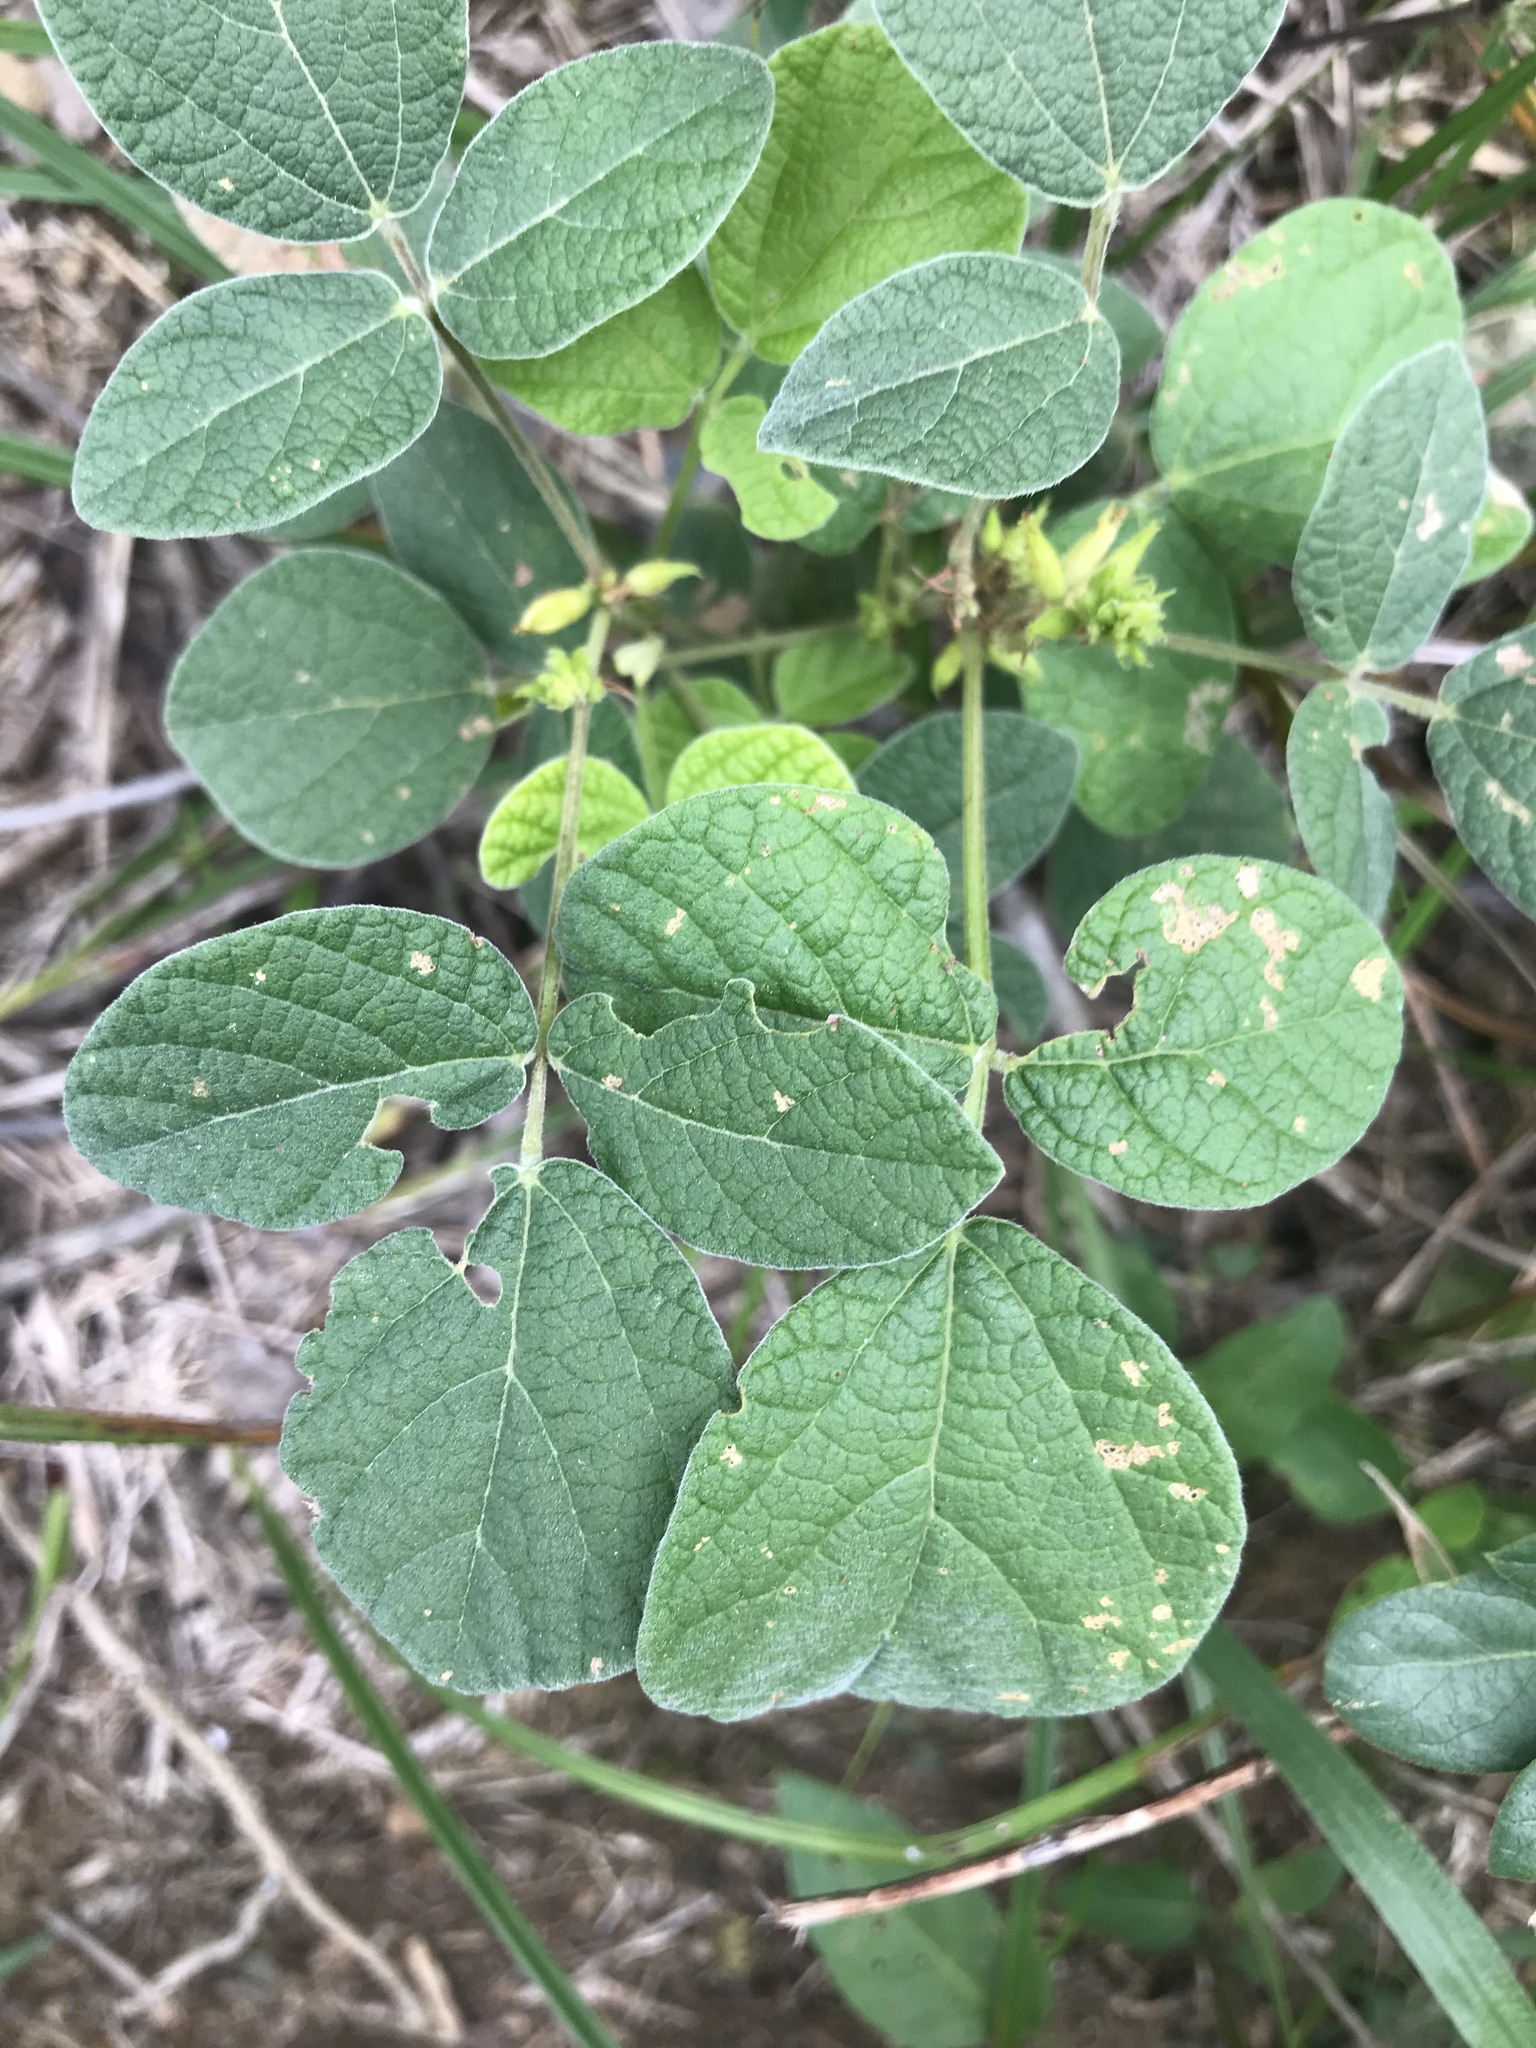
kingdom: Plantae
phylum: Tracheophyta
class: Magnoliopsida
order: Fabales
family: Fabaceae
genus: Rhynchosia
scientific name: Rhynchosia tomentosa
